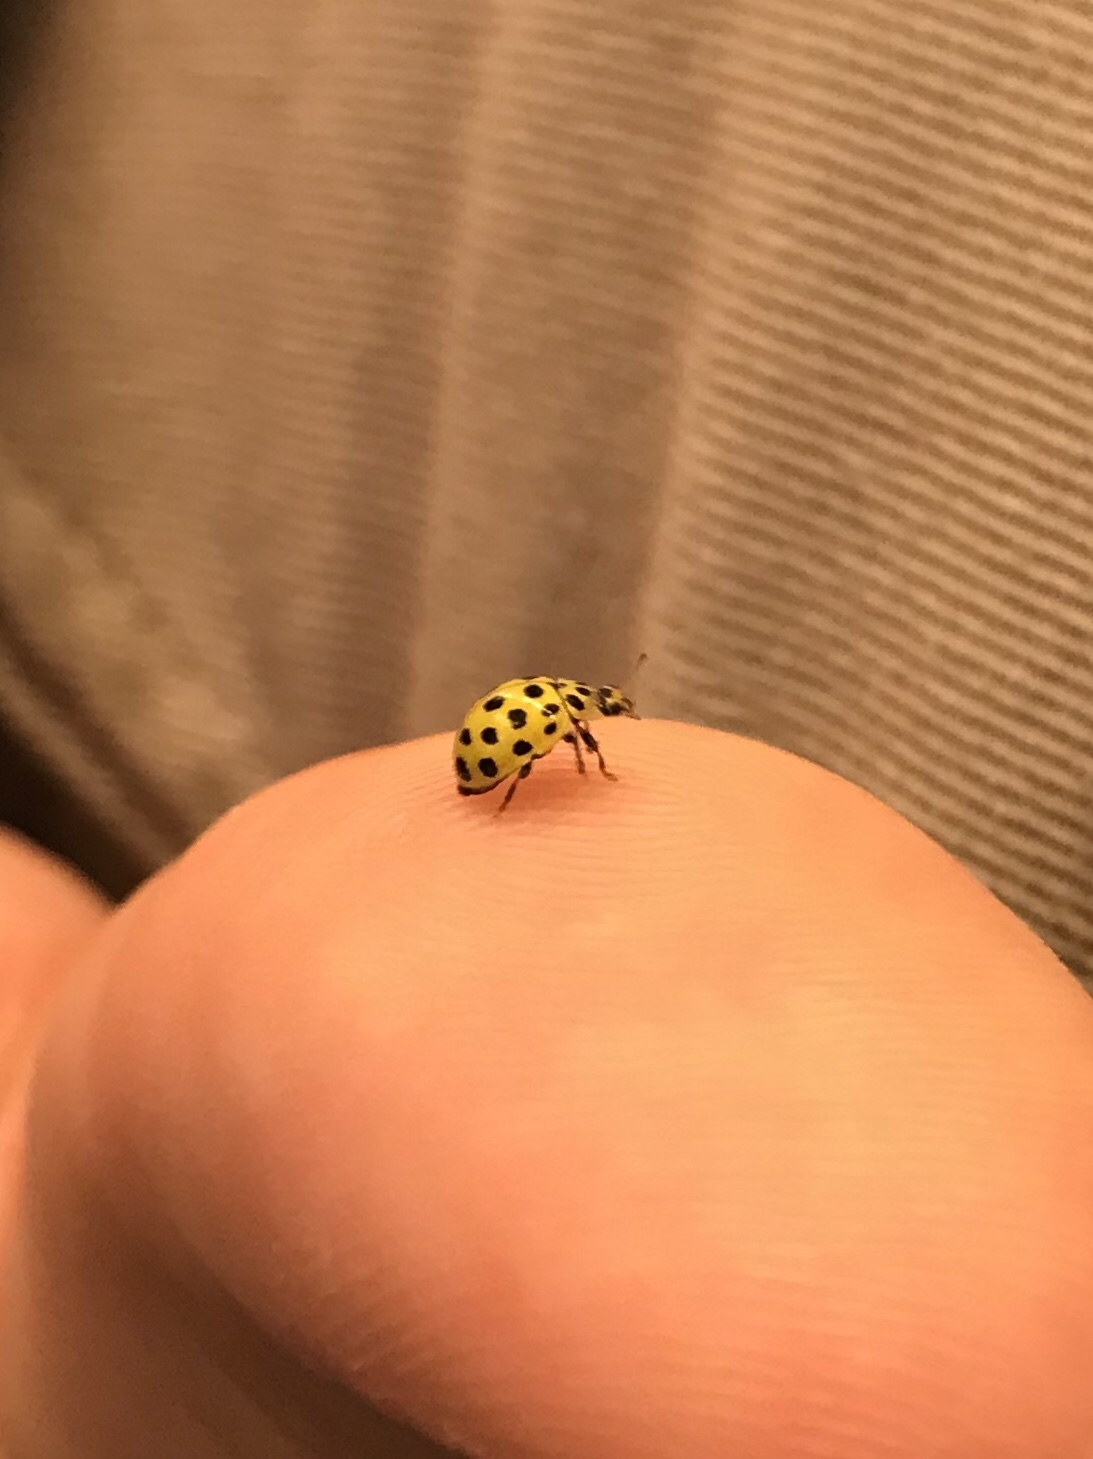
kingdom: Animalia
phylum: Arthropoda
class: Insecta
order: Coleoptera
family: Coccinellidae
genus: Psyllobora
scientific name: Psyllobora vigintiduopunctata
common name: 22-spot ladybird
